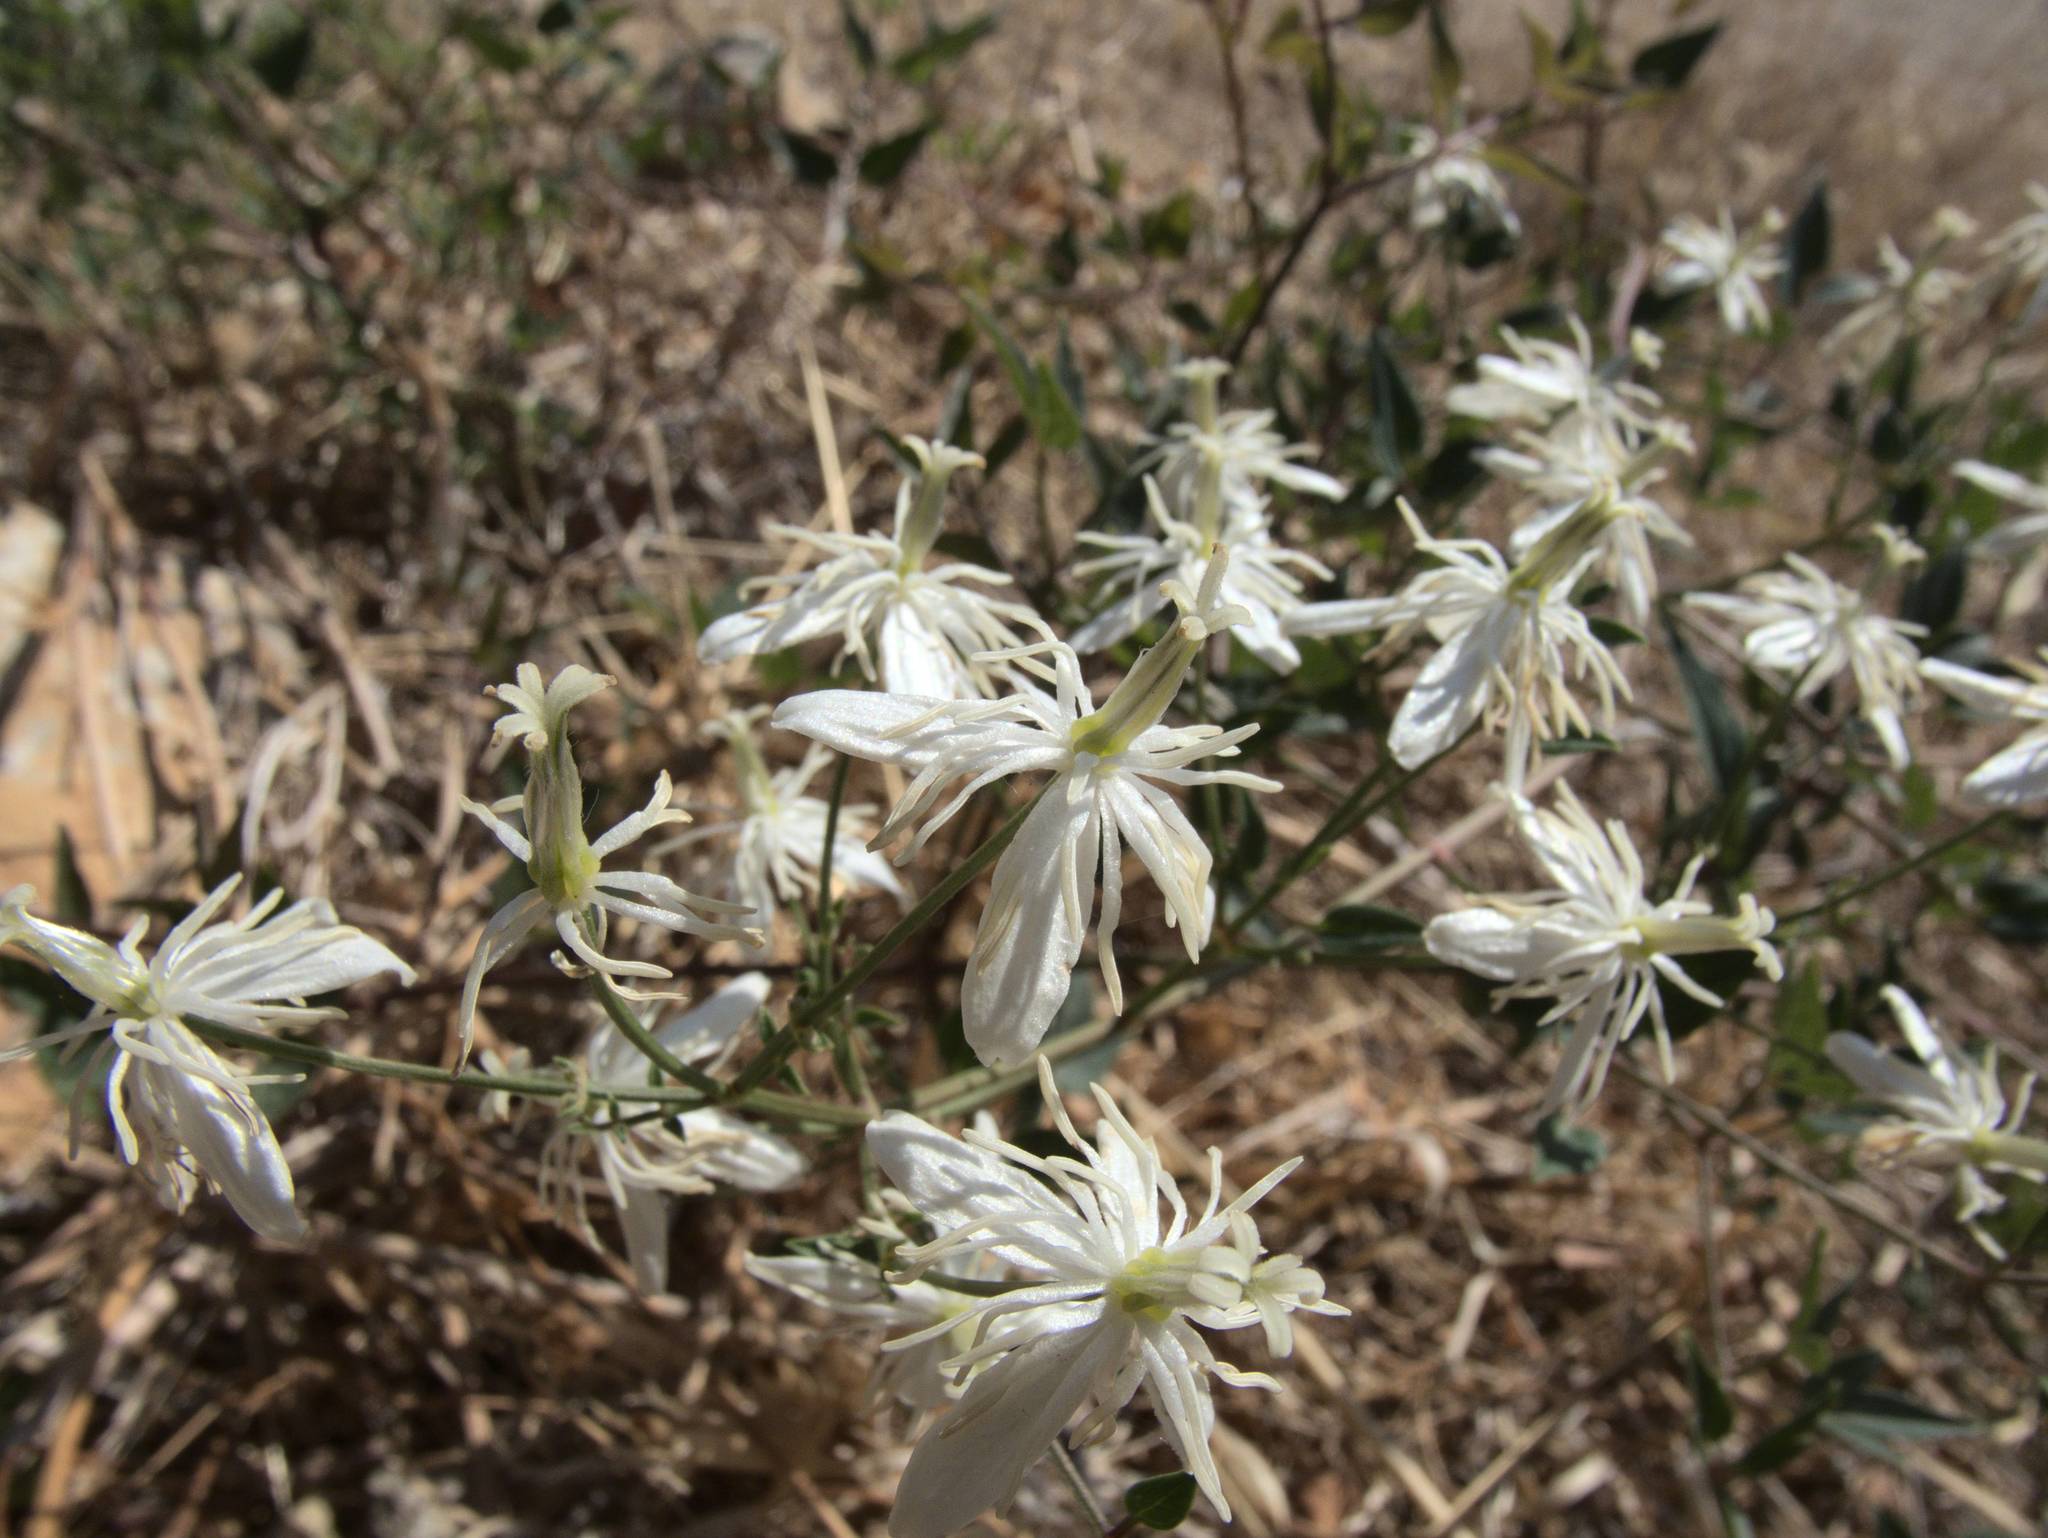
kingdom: Plantae
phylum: Tracheophyta
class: Magnoliopsida
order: Ranunculales
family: Ranunculaceae
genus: Clematis
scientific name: Clematis flammula
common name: Virgin's-bower
